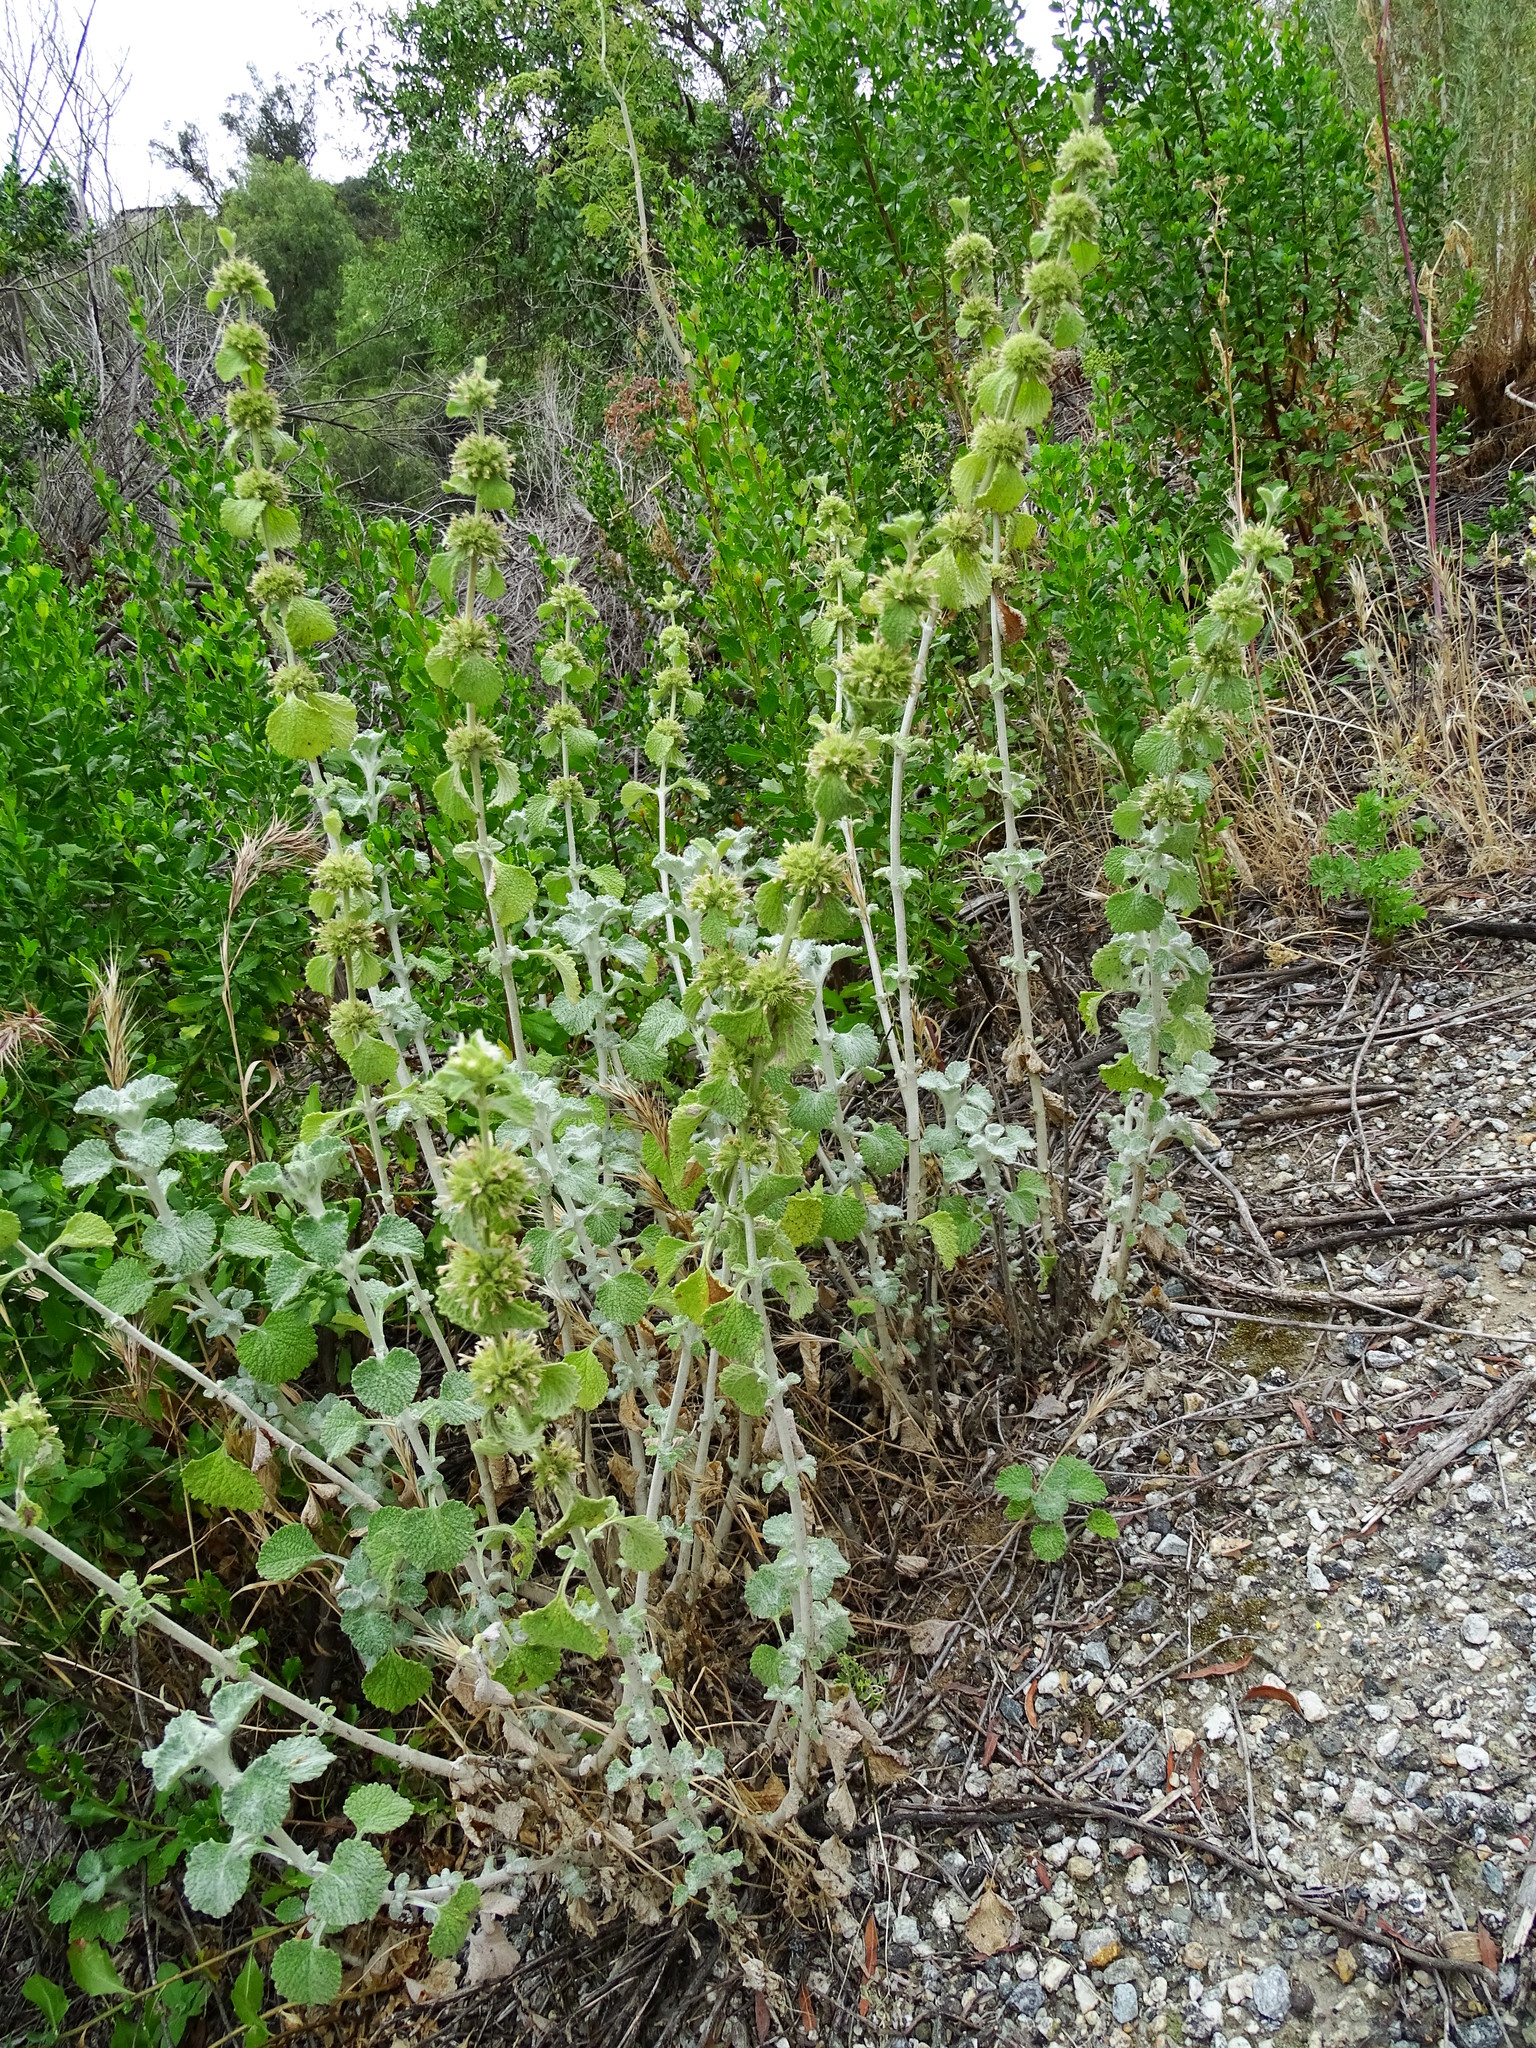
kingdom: Plantae
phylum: Tracheophyta
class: Magnoliopsida
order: Lamiales
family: Lamiaceae
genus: Marrubium
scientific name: Marrubium vulgare
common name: Horehound
